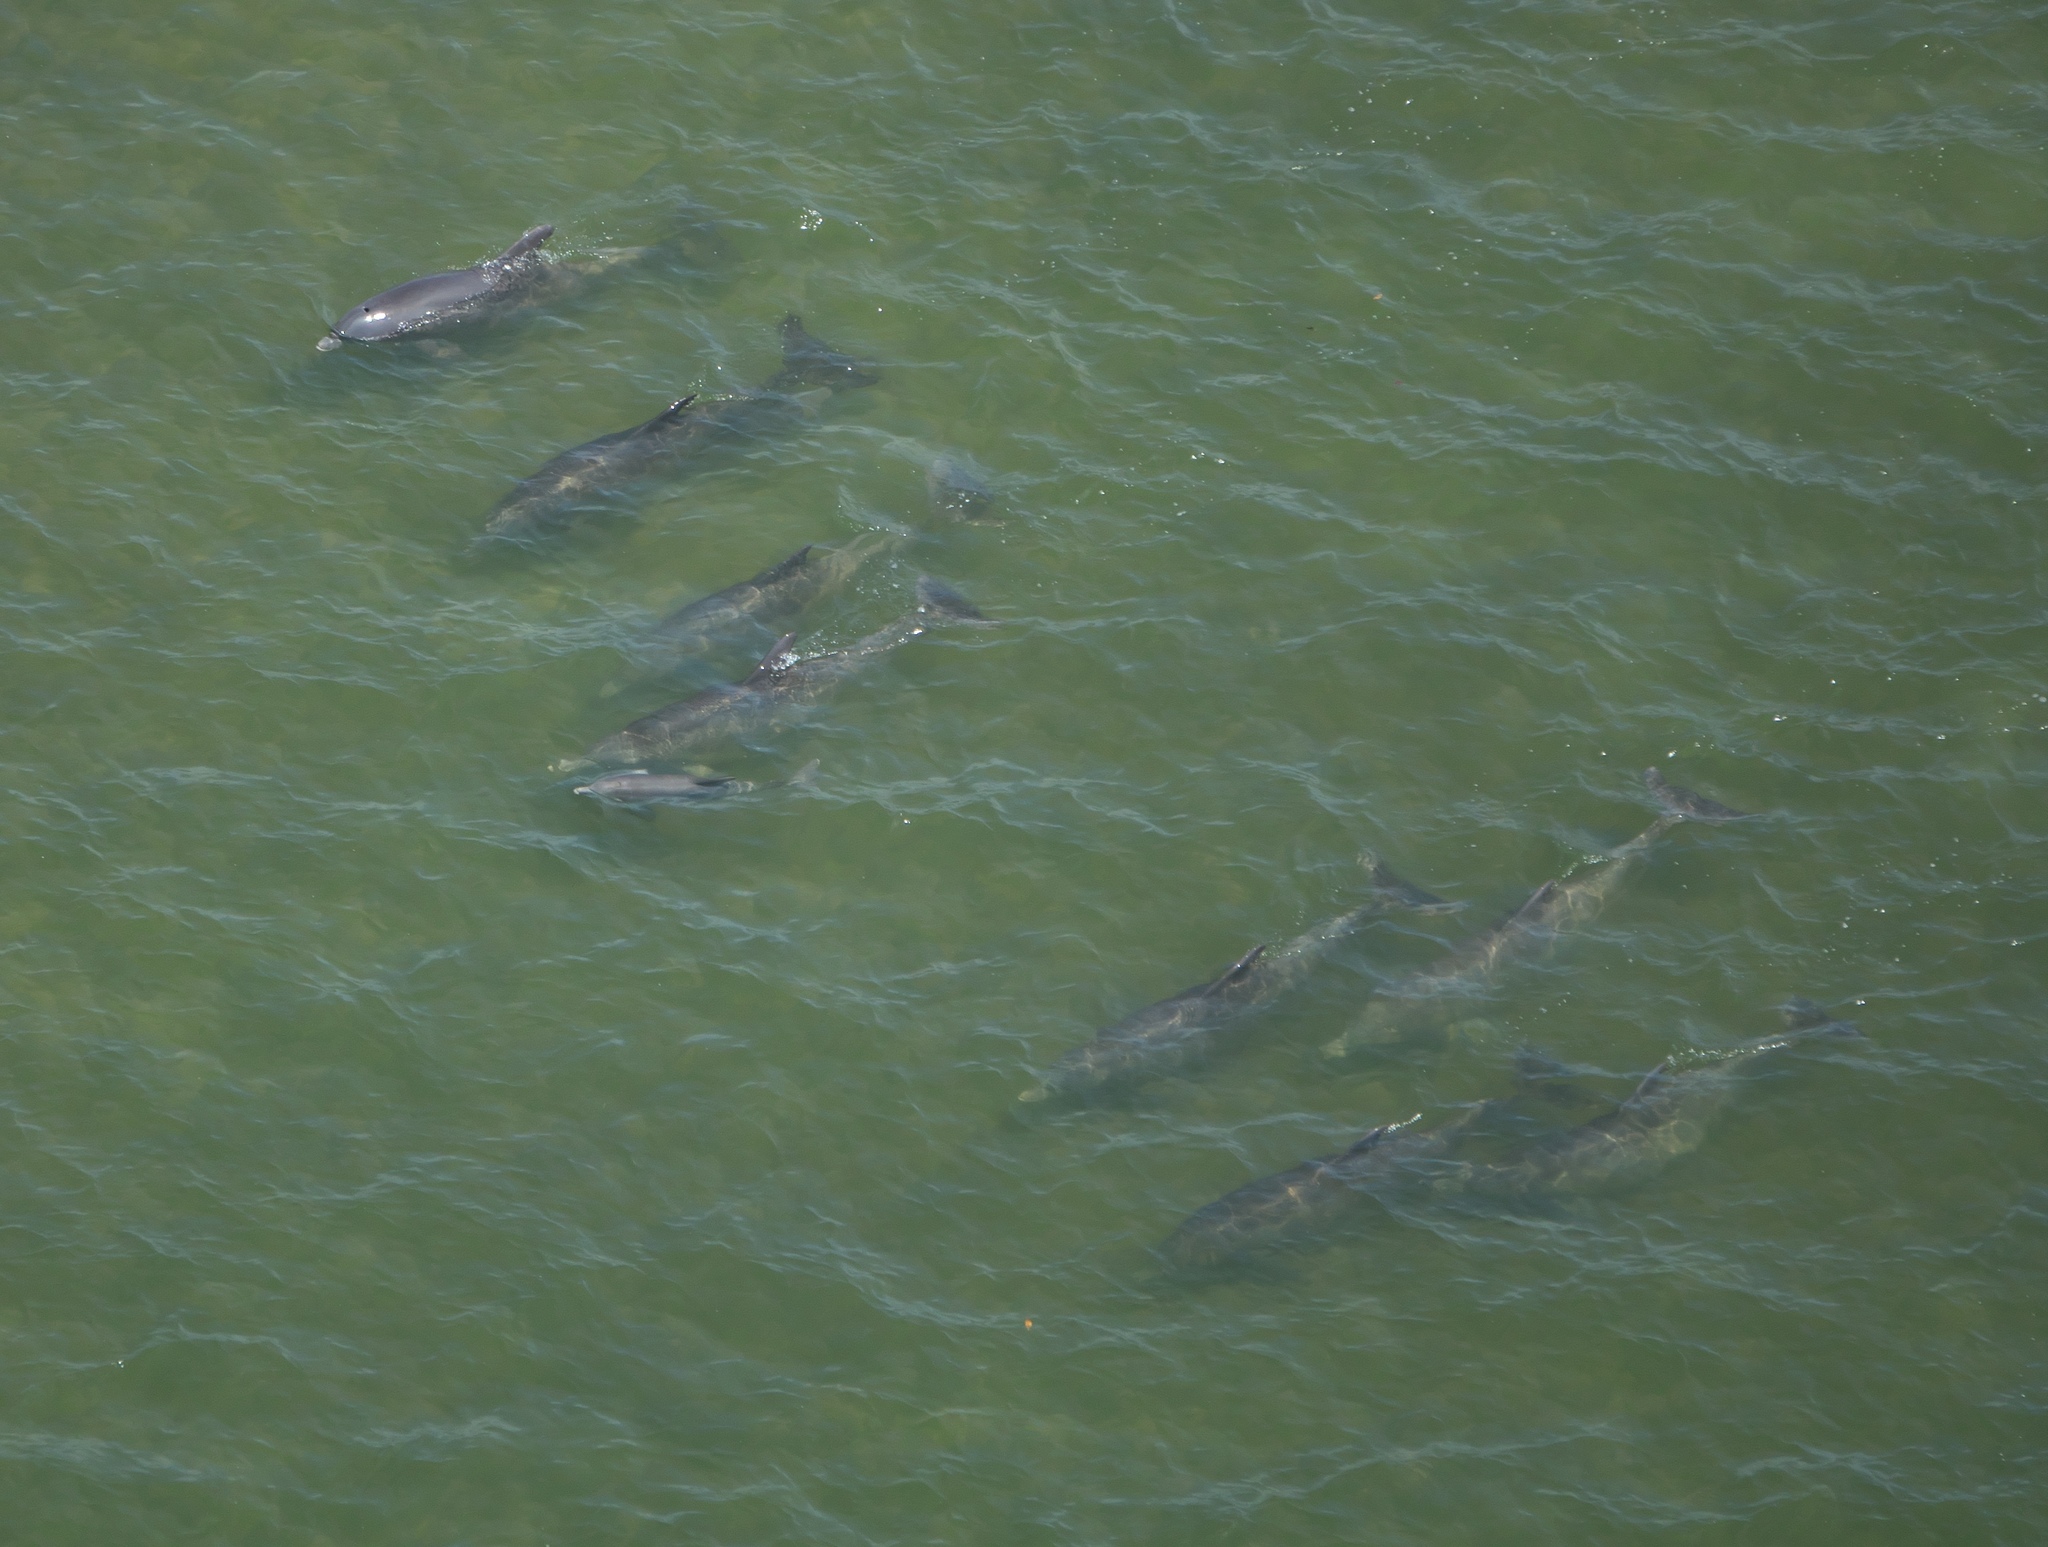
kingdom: Animalia
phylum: Chordata
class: Mammalia
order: Cetacea
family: Delphinidae
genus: Tursiops
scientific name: Tursiops truncatus
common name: Bottlenose dolphin
